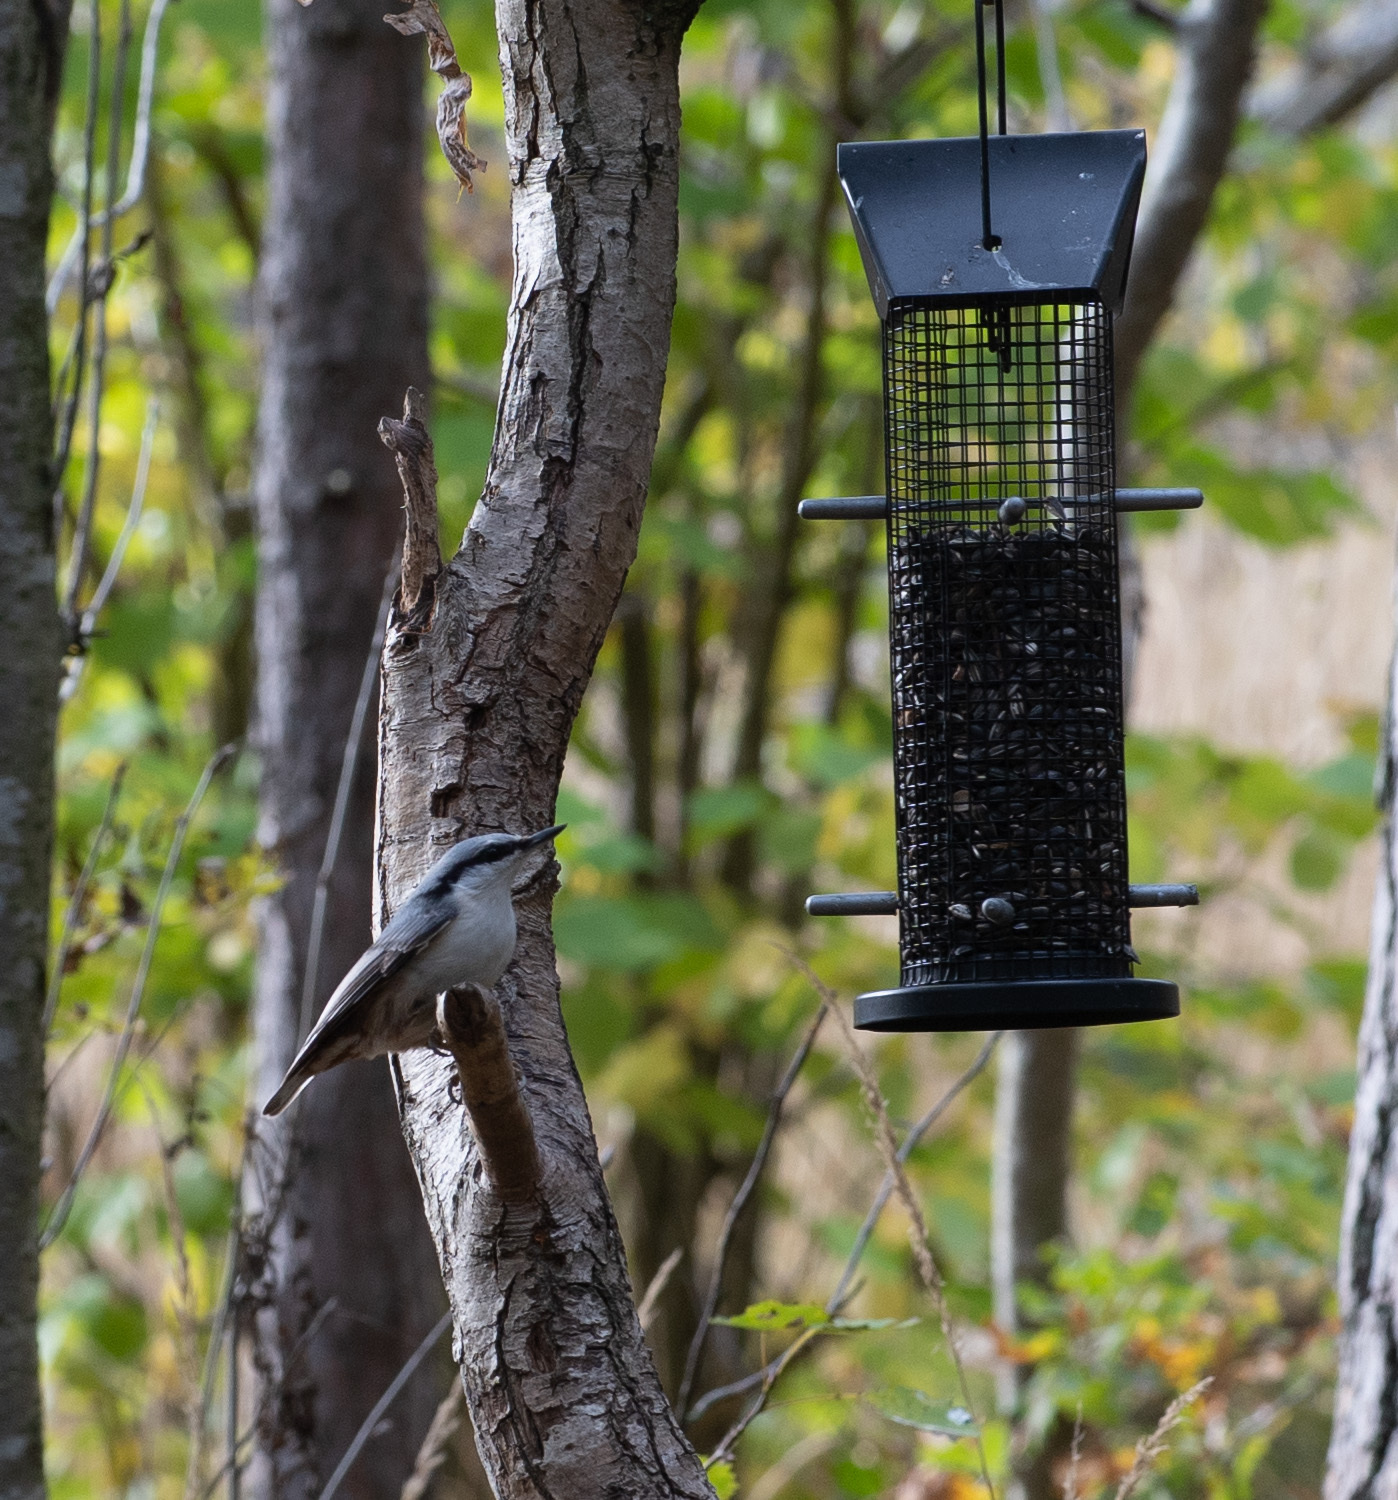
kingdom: Animalia
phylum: Chordata
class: Aves
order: Passeriformes
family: Sittidae
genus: Sitta
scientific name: Sitta europaea
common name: Eurasian nuthatch
